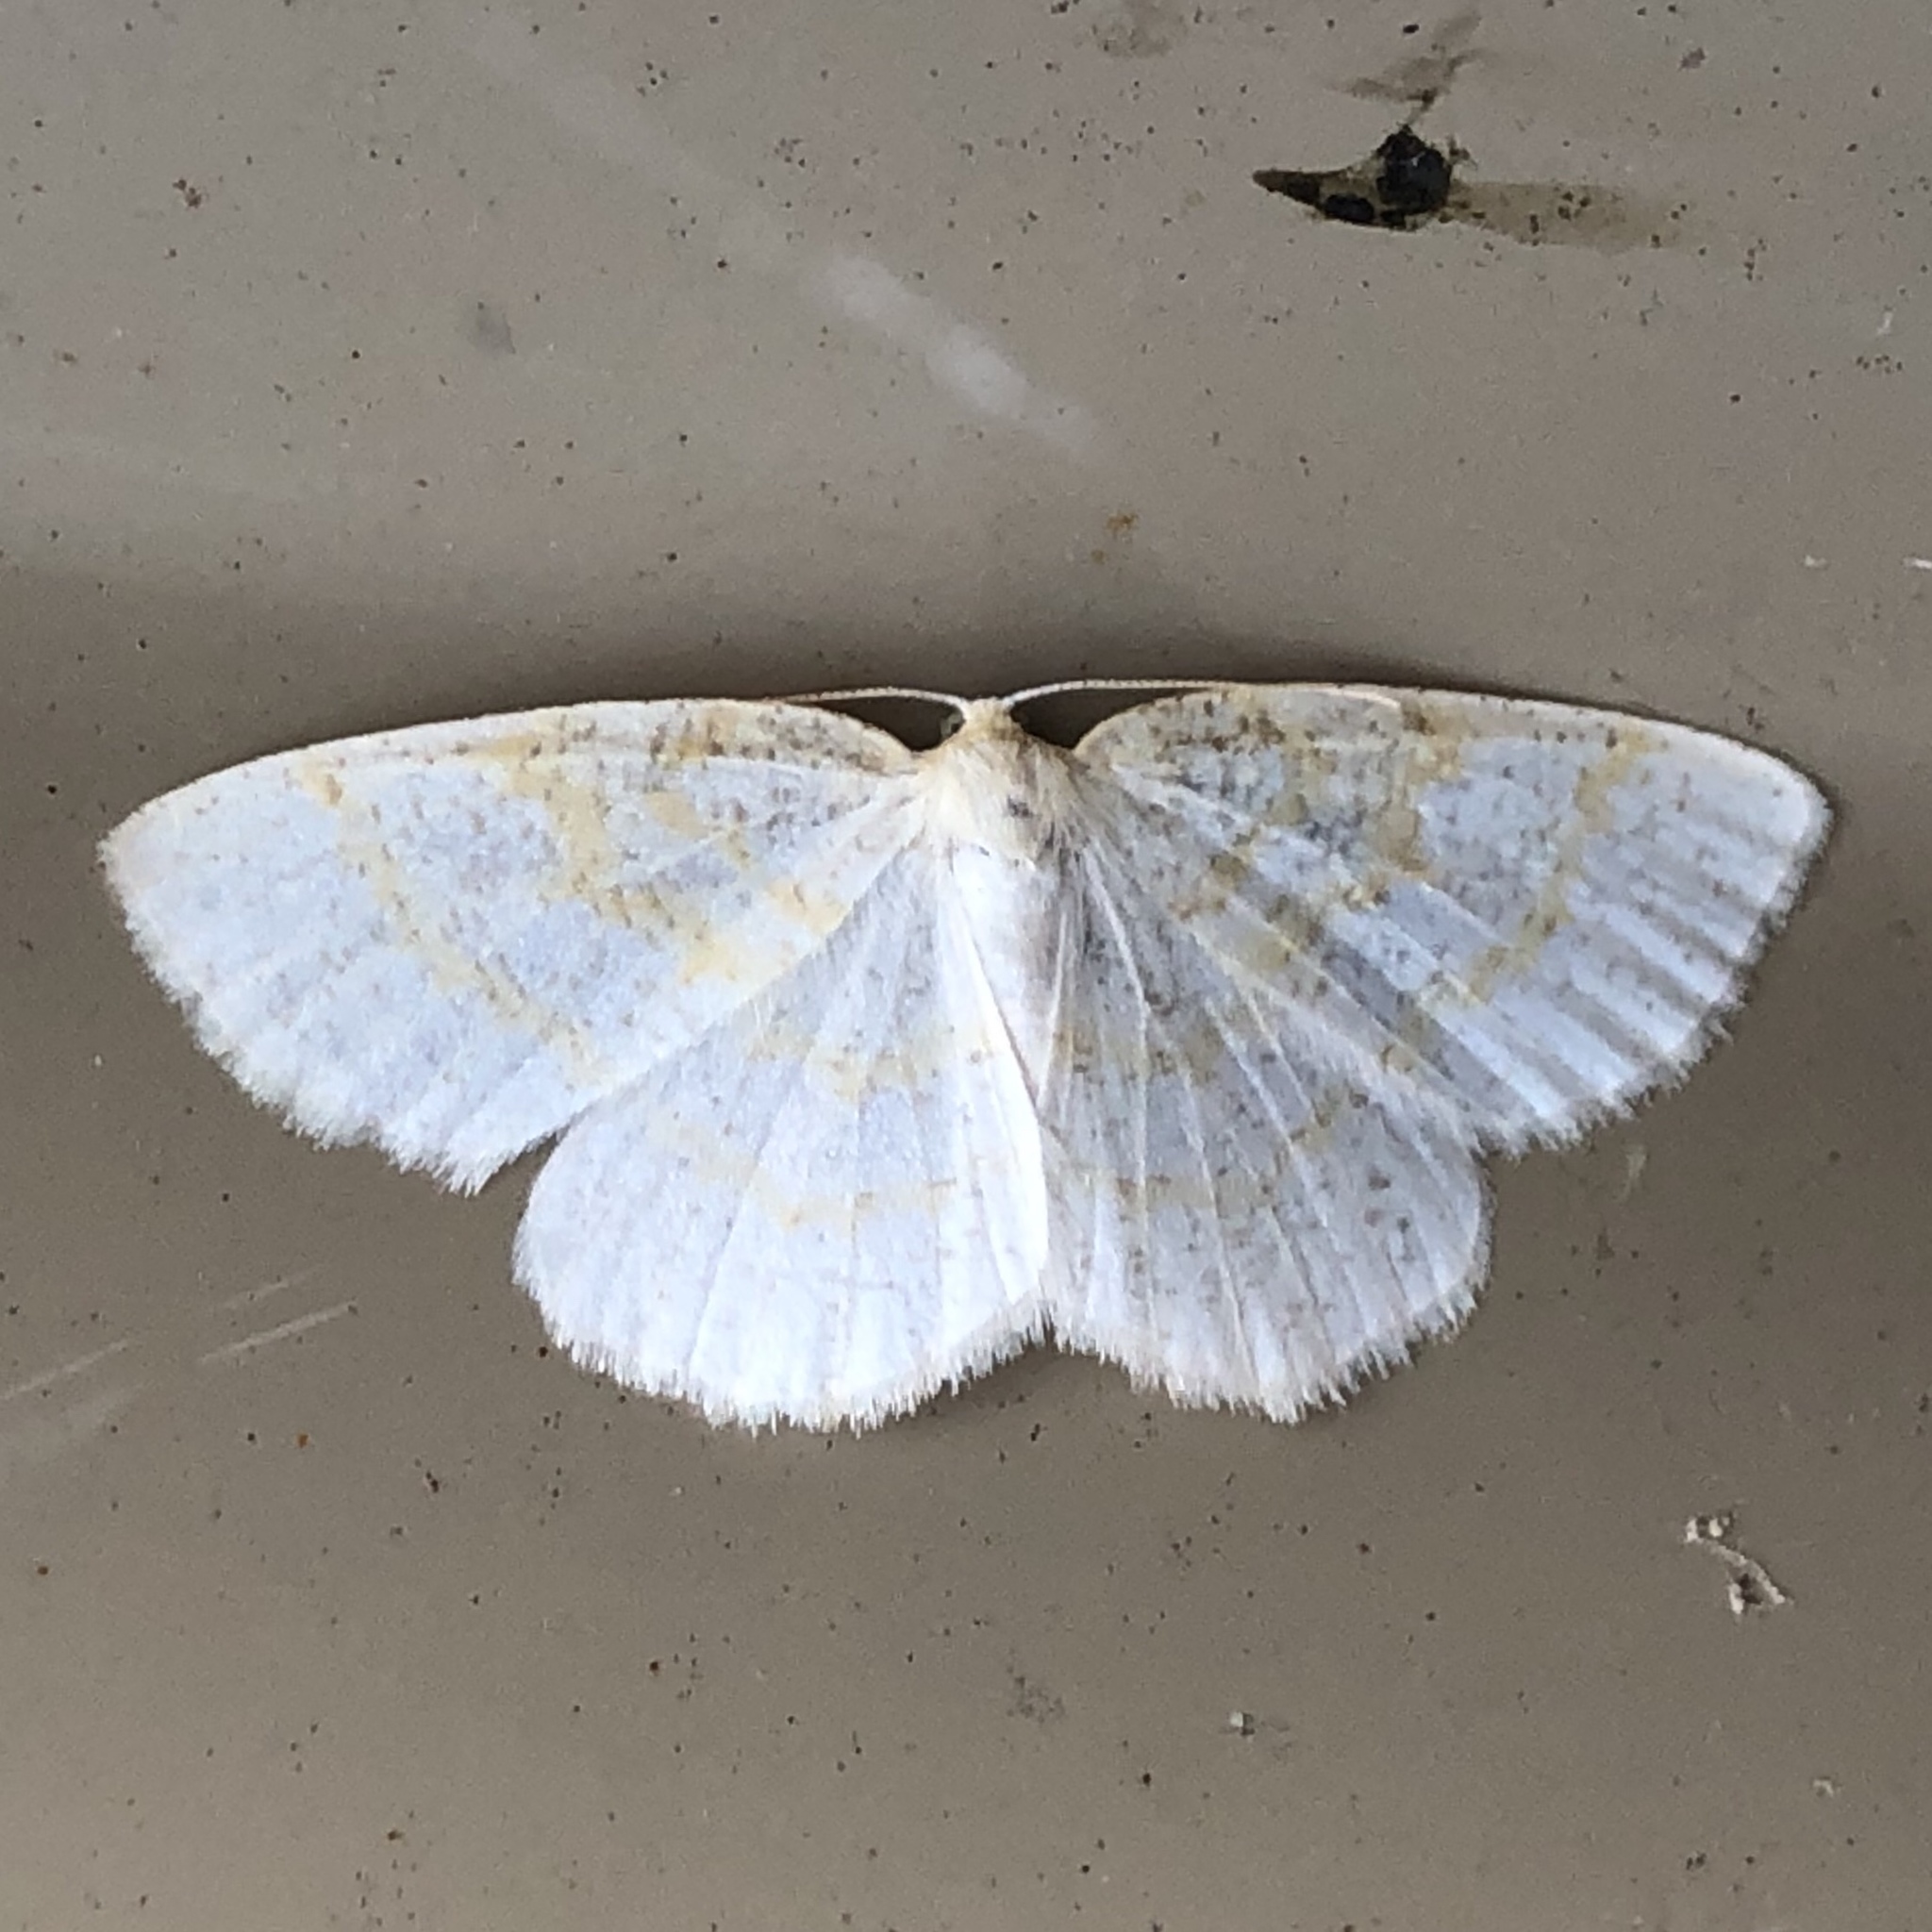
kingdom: Animalia
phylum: Arthropoda
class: Insecta
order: Lepidoptera
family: Geometridae
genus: Cabera
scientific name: Cabera erythemaria
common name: Yellow-dusted cream moth
